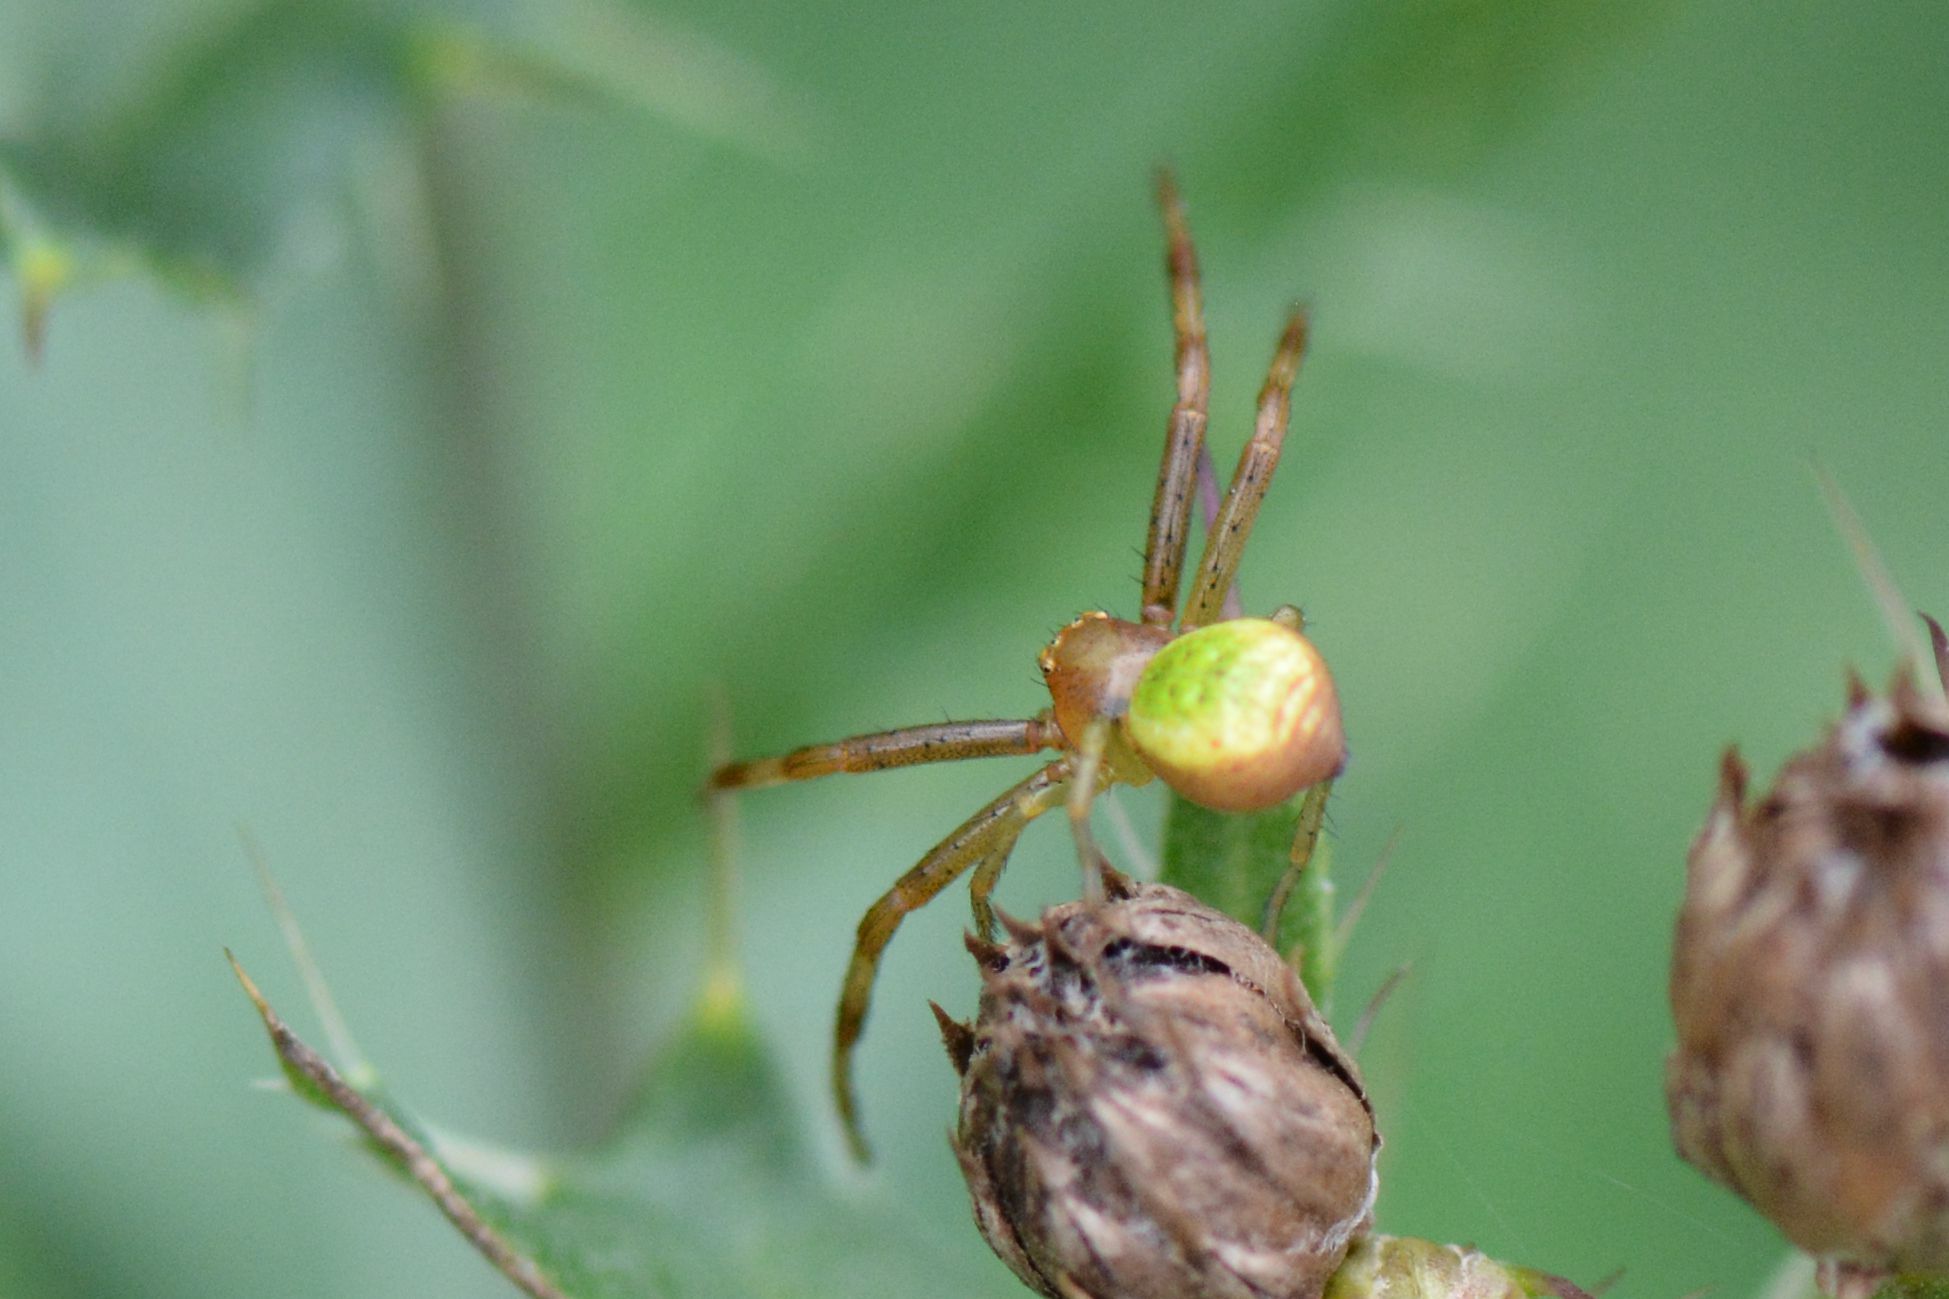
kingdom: Animalia
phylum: Arthropoda
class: Arachnida
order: Araneae
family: Thomisidae
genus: Ebrechtella
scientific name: Ebrechtella tricuspidata
